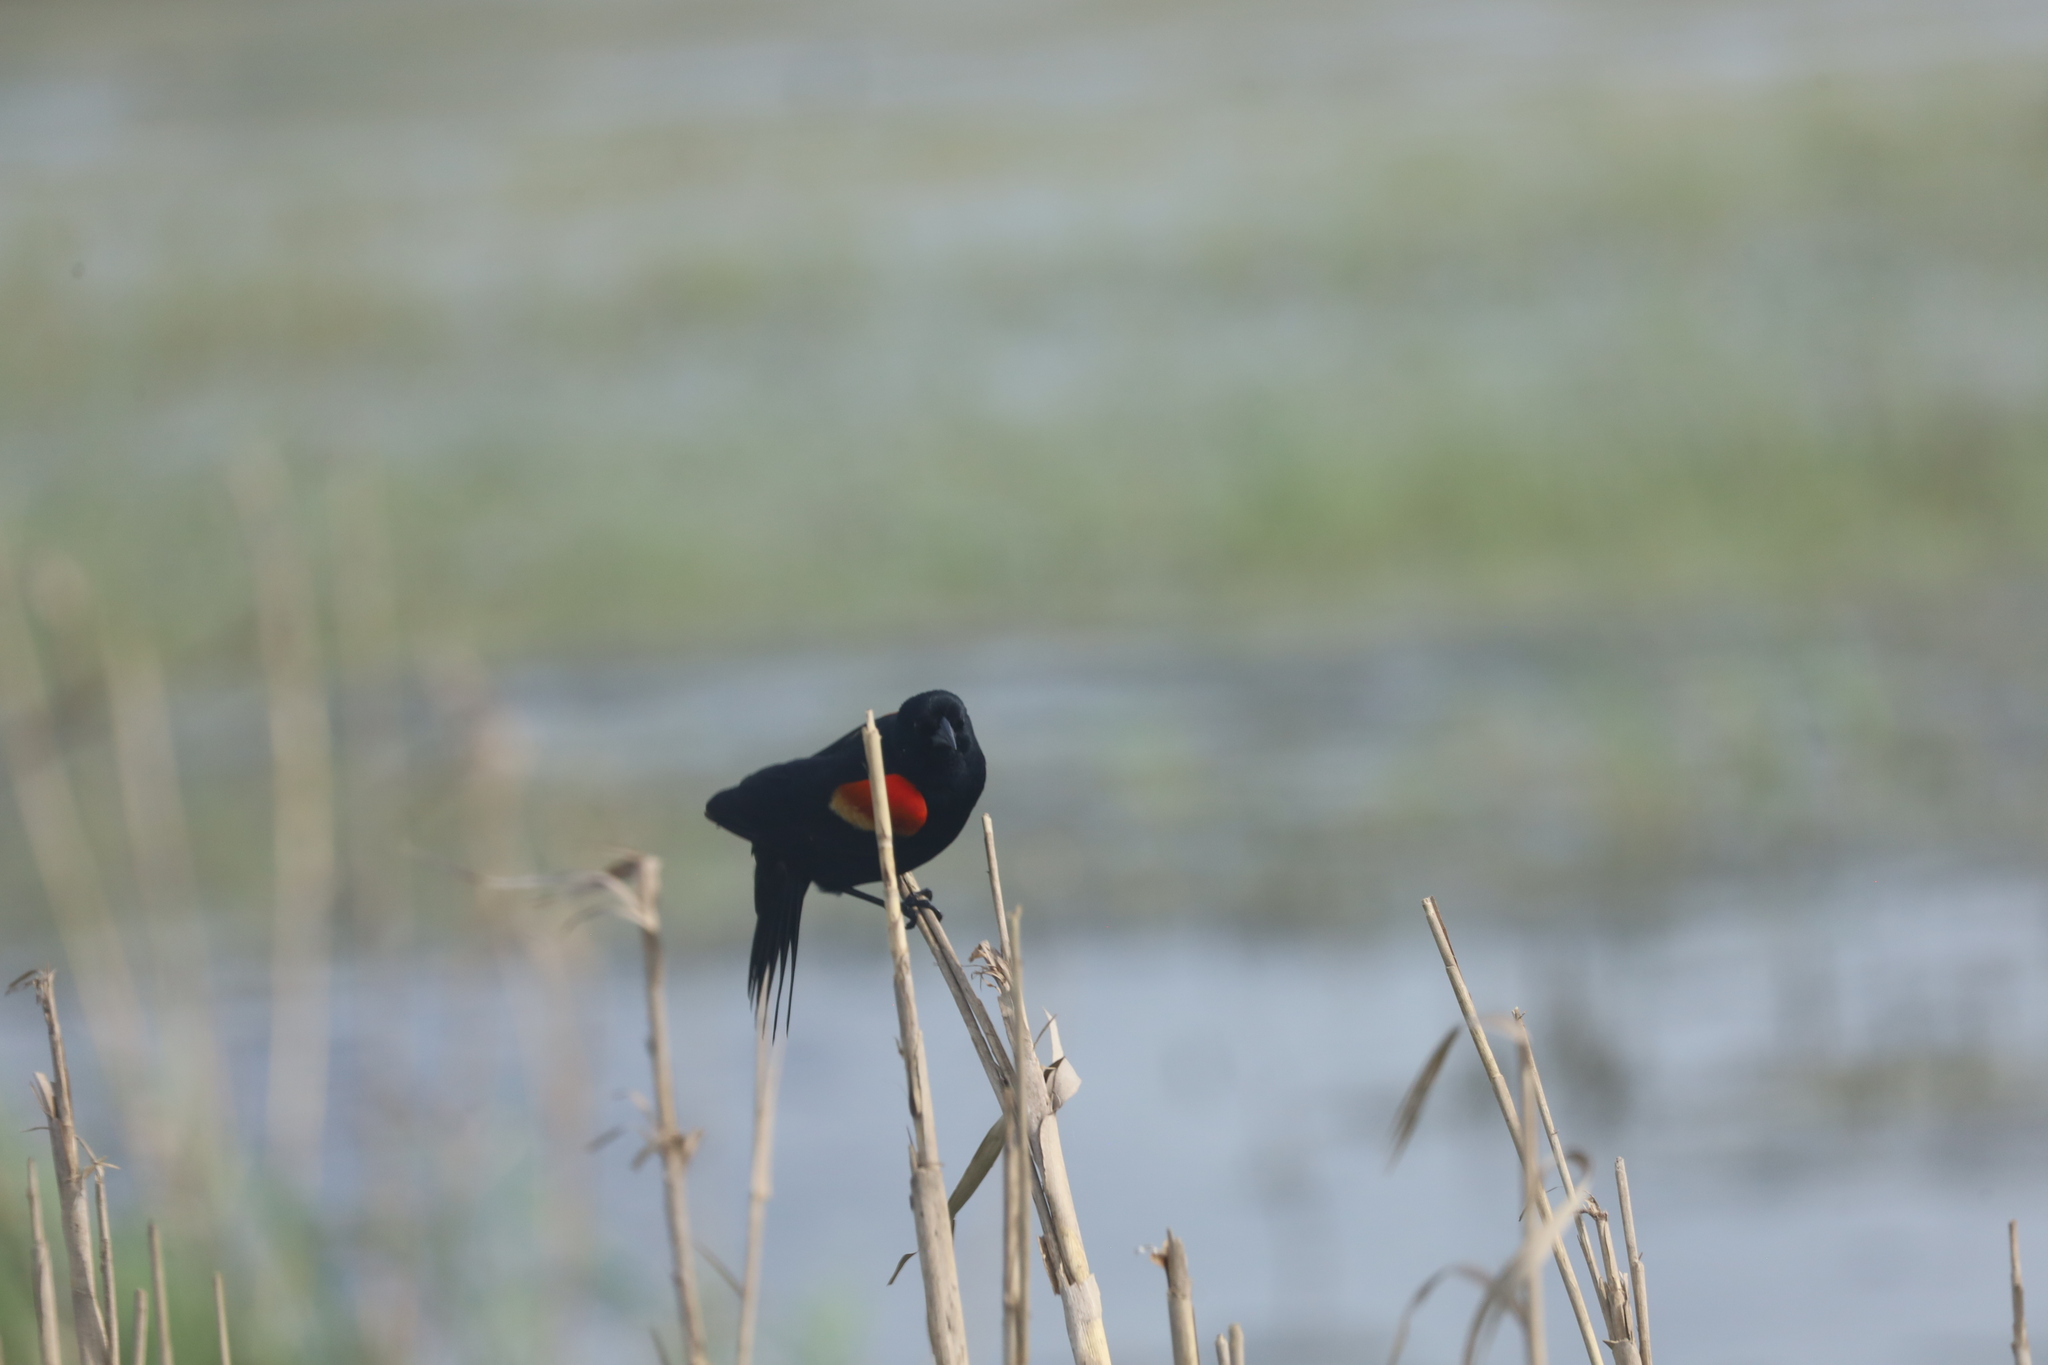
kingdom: Animalia
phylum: Chordata
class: Aves
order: Passeriformes
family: Icteridae
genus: Agelaius
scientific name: Agelaius phoeniceus
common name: Red-winged blackbird
